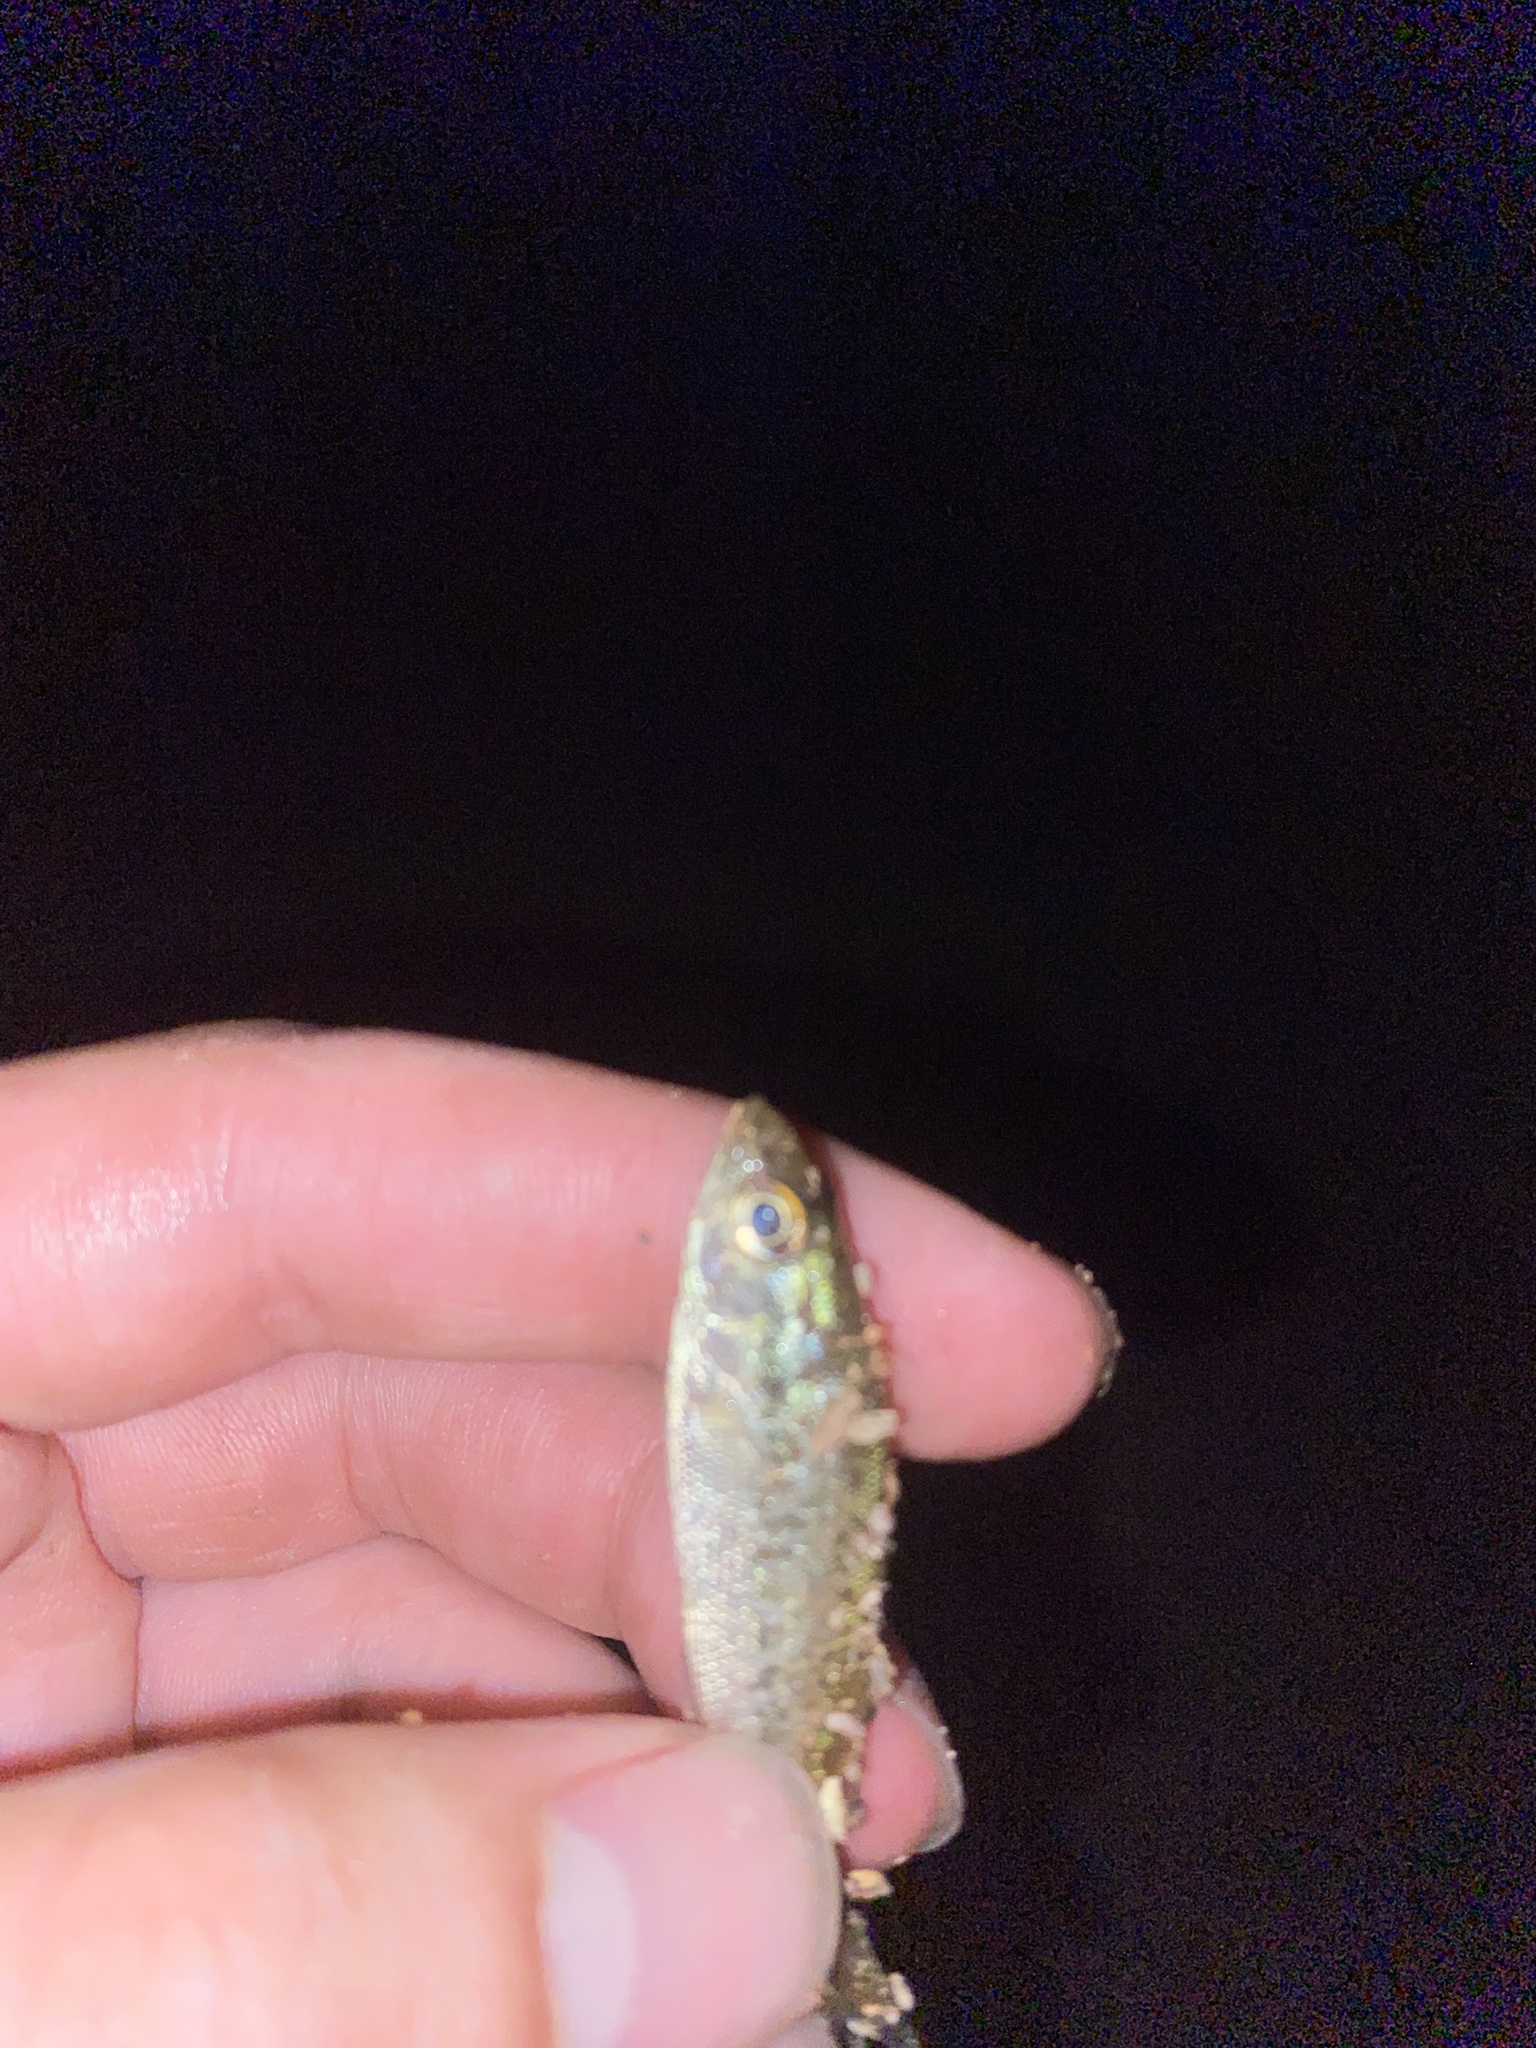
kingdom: Animalia
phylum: Chordata
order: Perciformes
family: Centrarchidae
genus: Micropterus
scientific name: Micropterus
